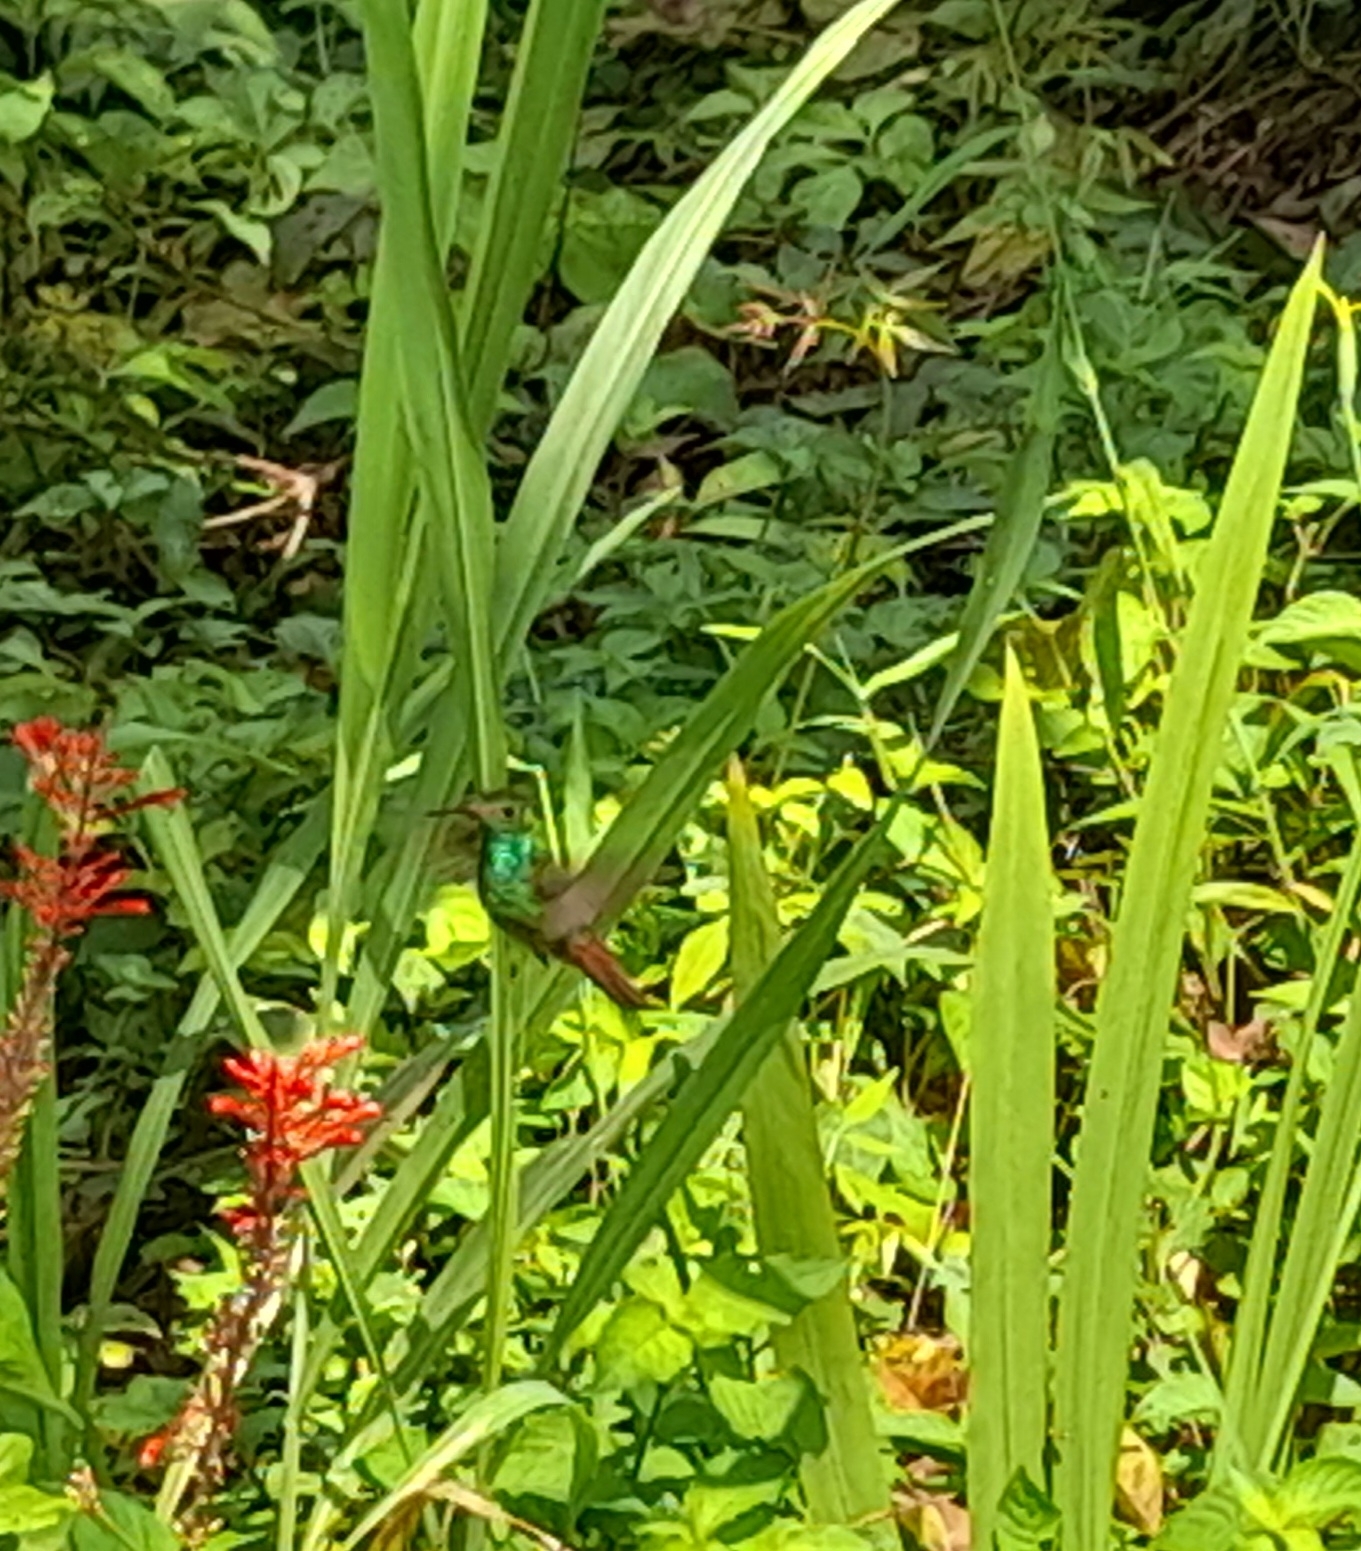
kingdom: Animalia
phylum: Chordata
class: Aves
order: Apodiformes
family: Trochilidae
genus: Amazilia
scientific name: Amazilia tzacatl
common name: Rufous-tailed hummingbird
